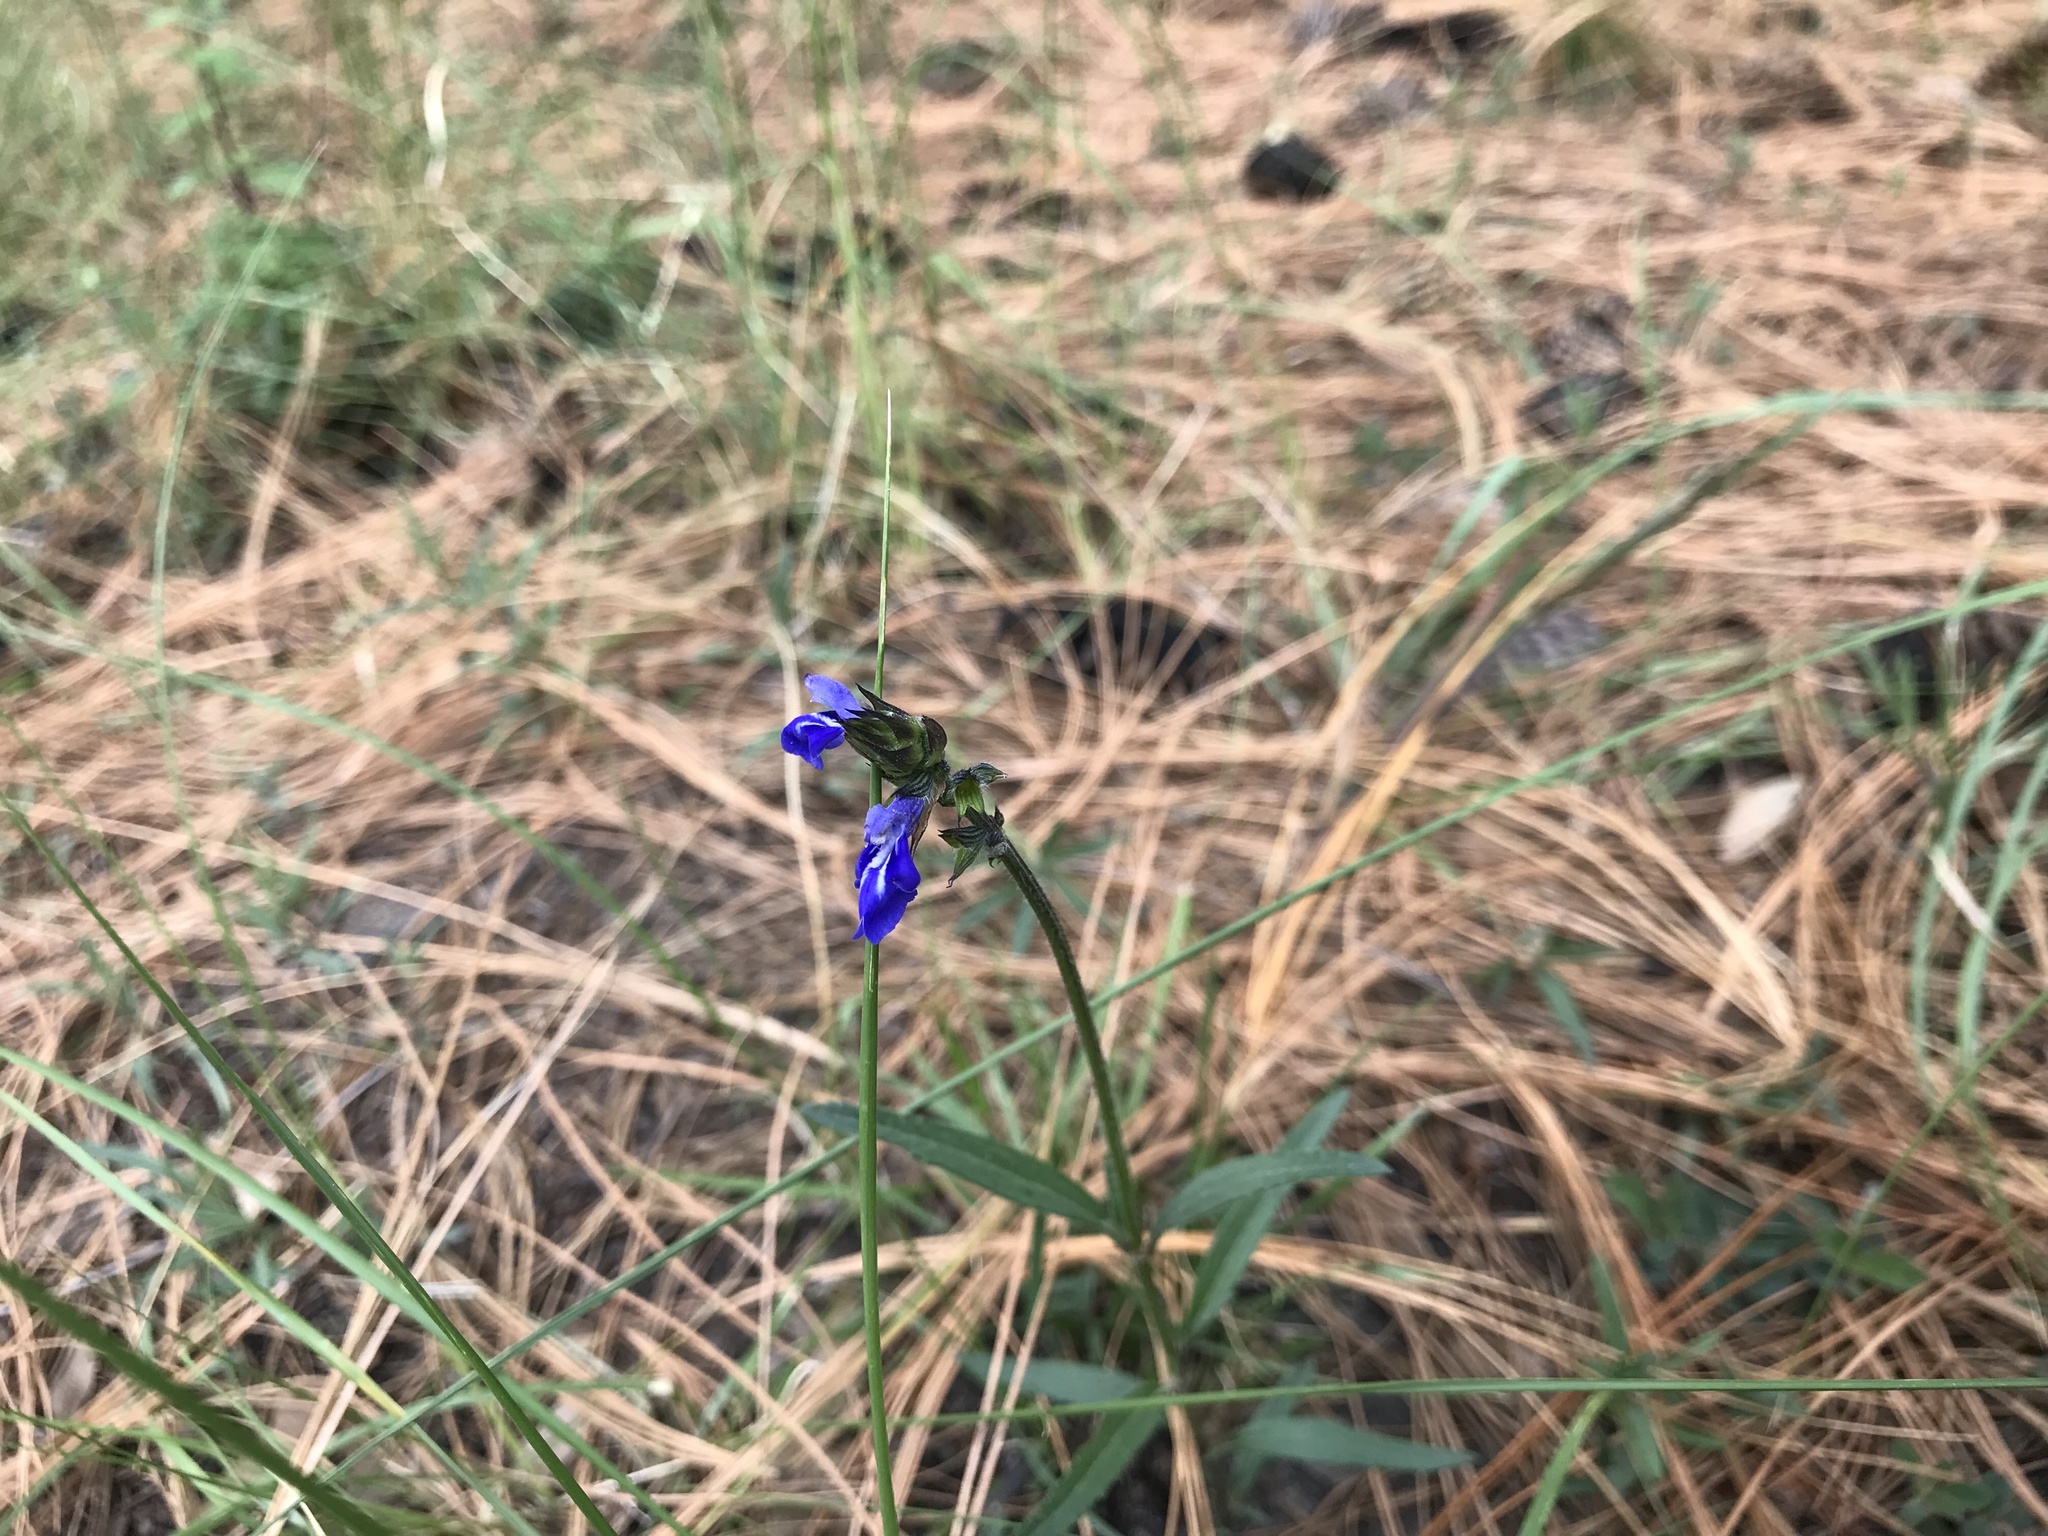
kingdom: Plantae
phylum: Tracheophyta
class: Magnoliopsida
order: Lamiales
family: Lamiaceae
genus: Salvia
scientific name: Salvia laevis
